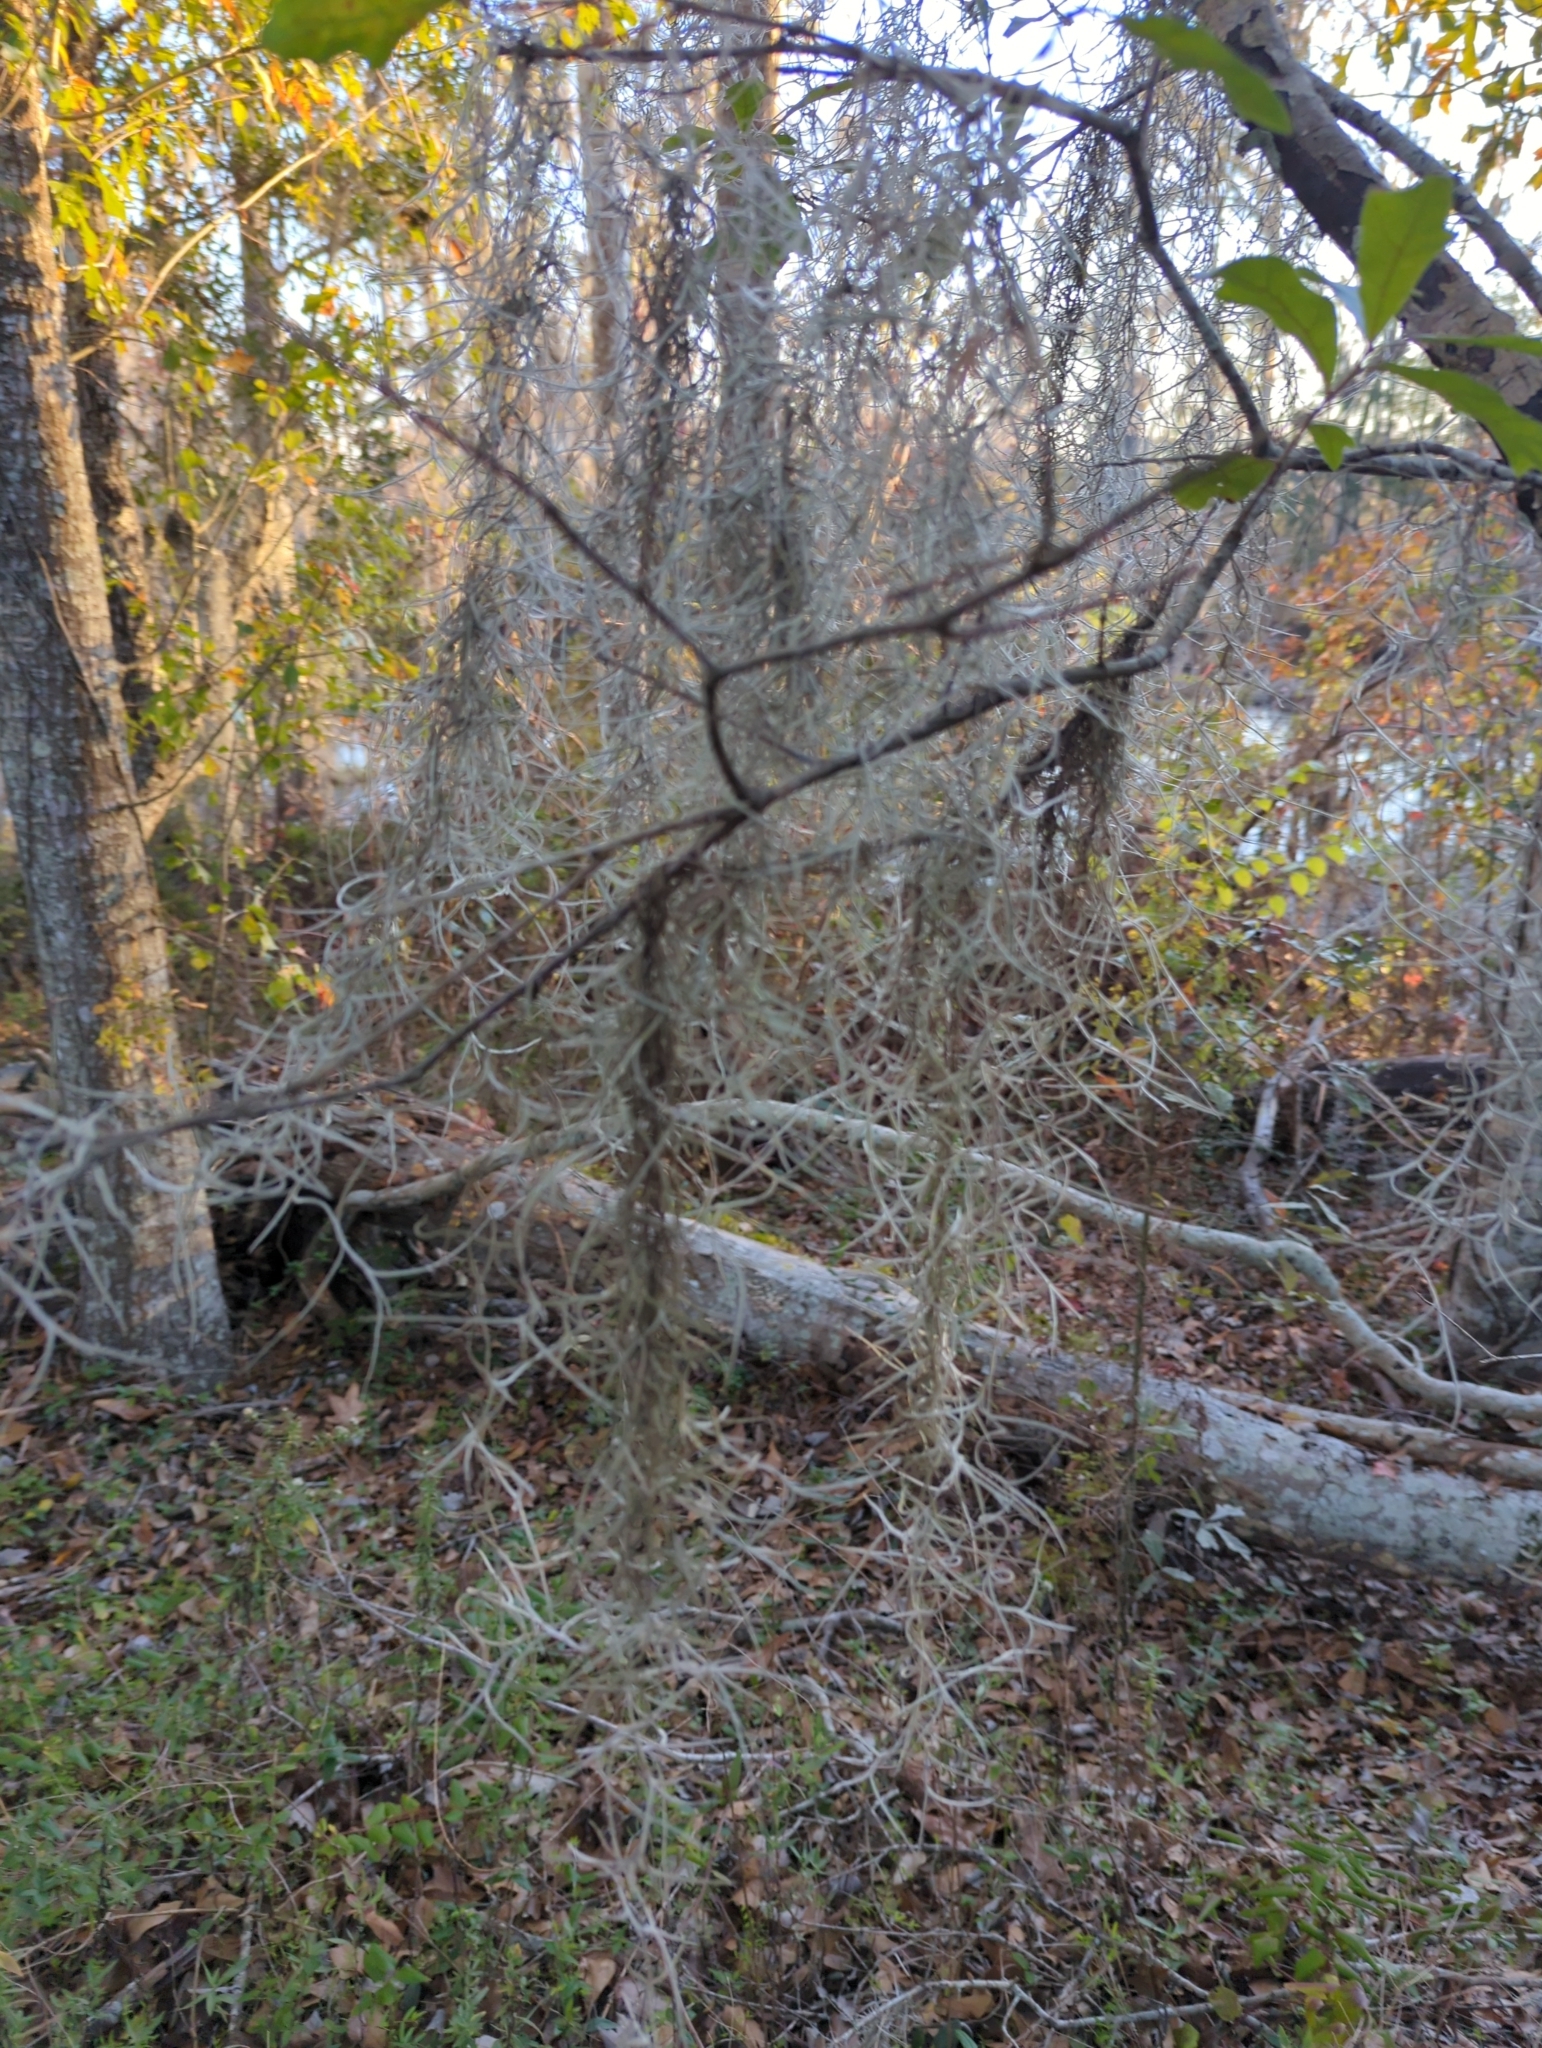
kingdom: Plantae
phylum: Tracheophyta
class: Liliopsida
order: Poales
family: Bromeliaceae
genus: Tillandsia
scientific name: Tillandsia usneoides
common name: Spanish moss
